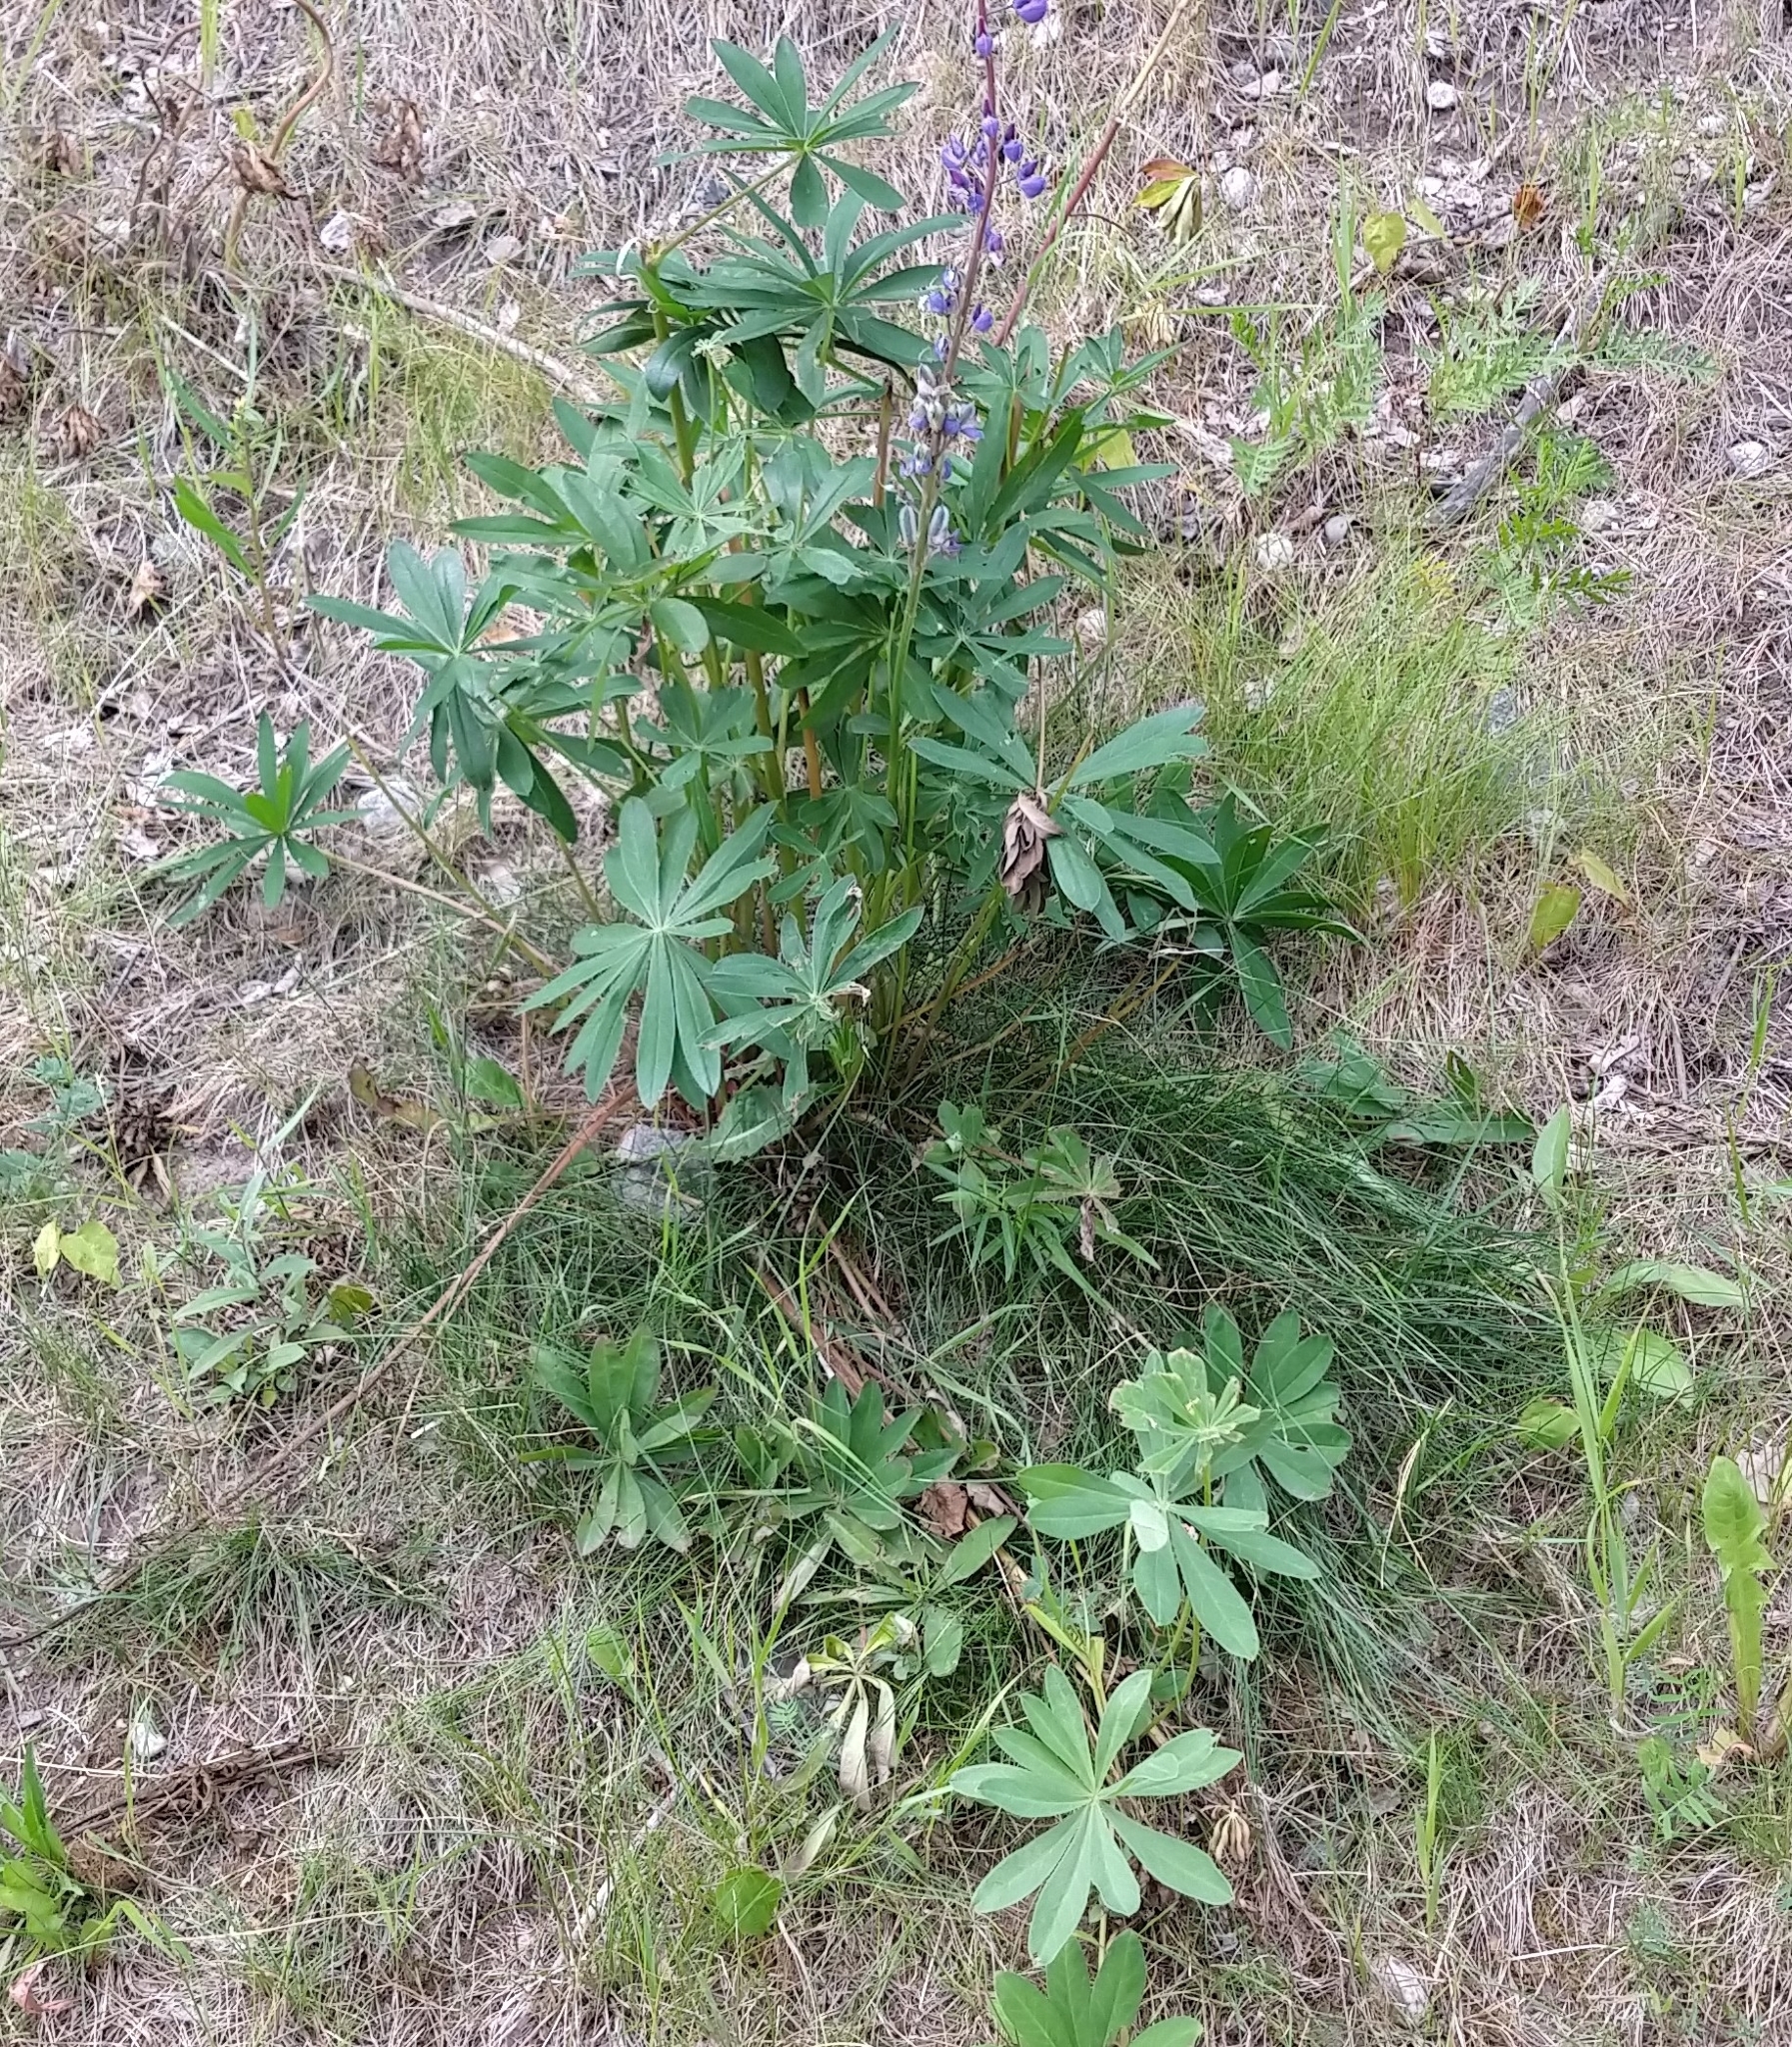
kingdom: Plantae
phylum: Tracheophyta
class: Magnoliopsida
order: Fabales
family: Fabaceae
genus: Lupinus
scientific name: Lupinus polyphyllus
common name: Garden lupin
